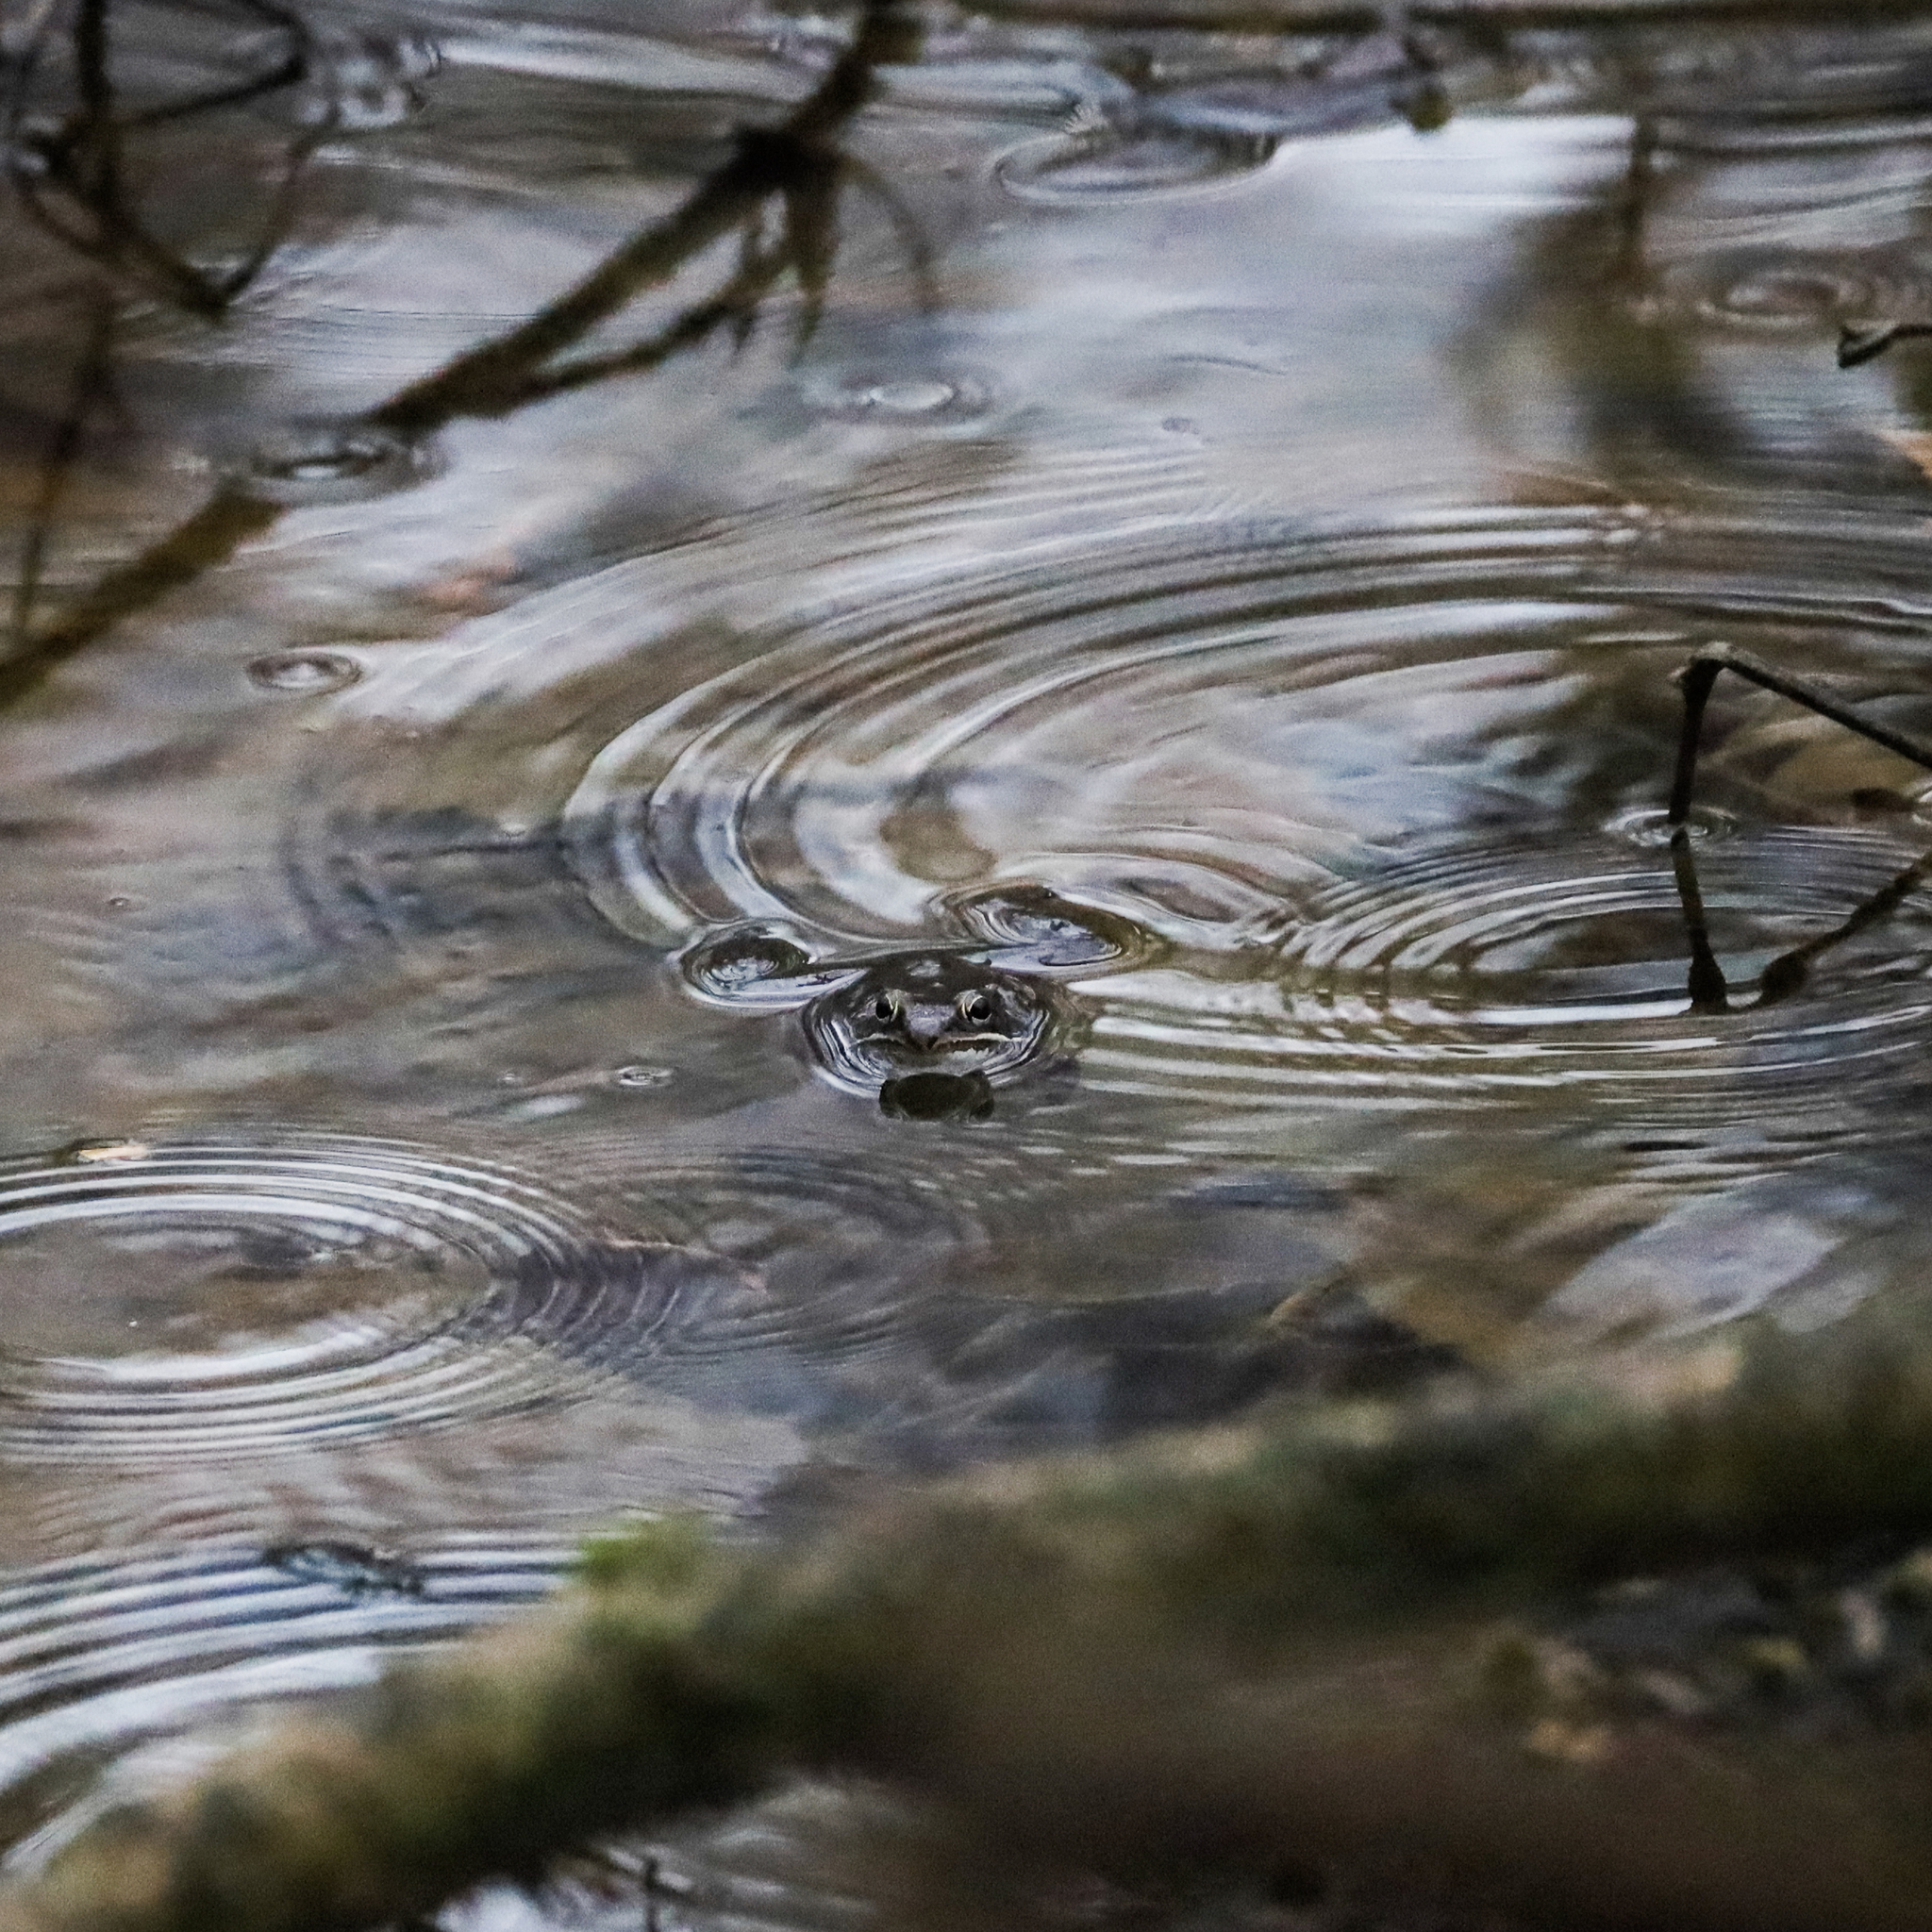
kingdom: Animalia
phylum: Chordata
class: Amphibia
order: Anura
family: Ranidae
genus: Lithobates
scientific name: Lithobates sylvaticus
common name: Wood frog
